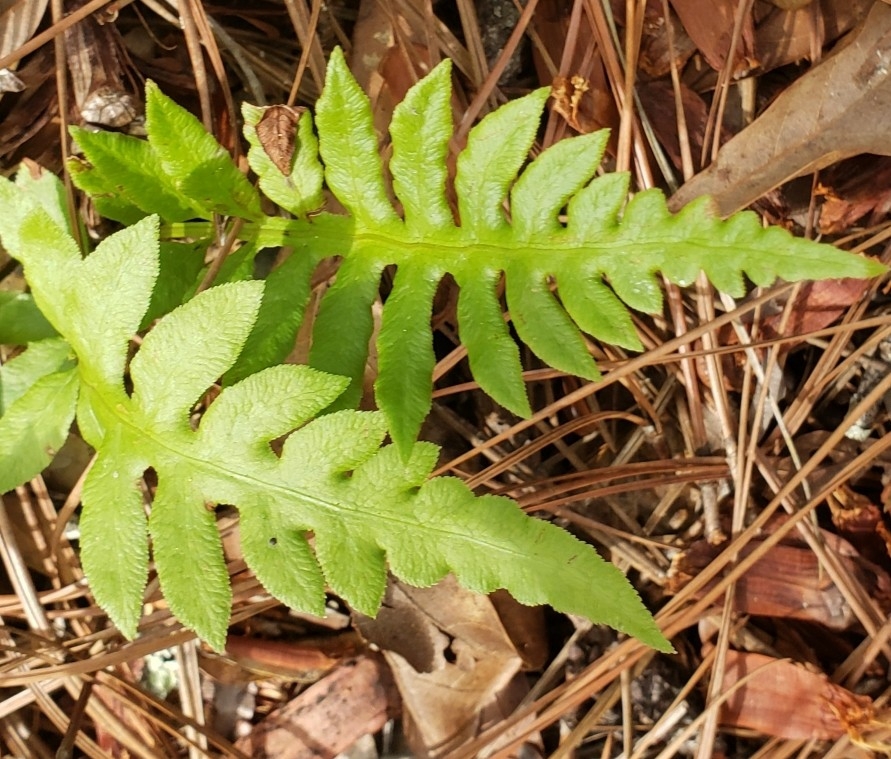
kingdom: Plantae
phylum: Tracheophyta
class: Polypodiopsida
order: Polypodiales
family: Blechnaceae
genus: Lorinseria
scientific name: Lorinseria areolata
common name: Dwarf chain fern
